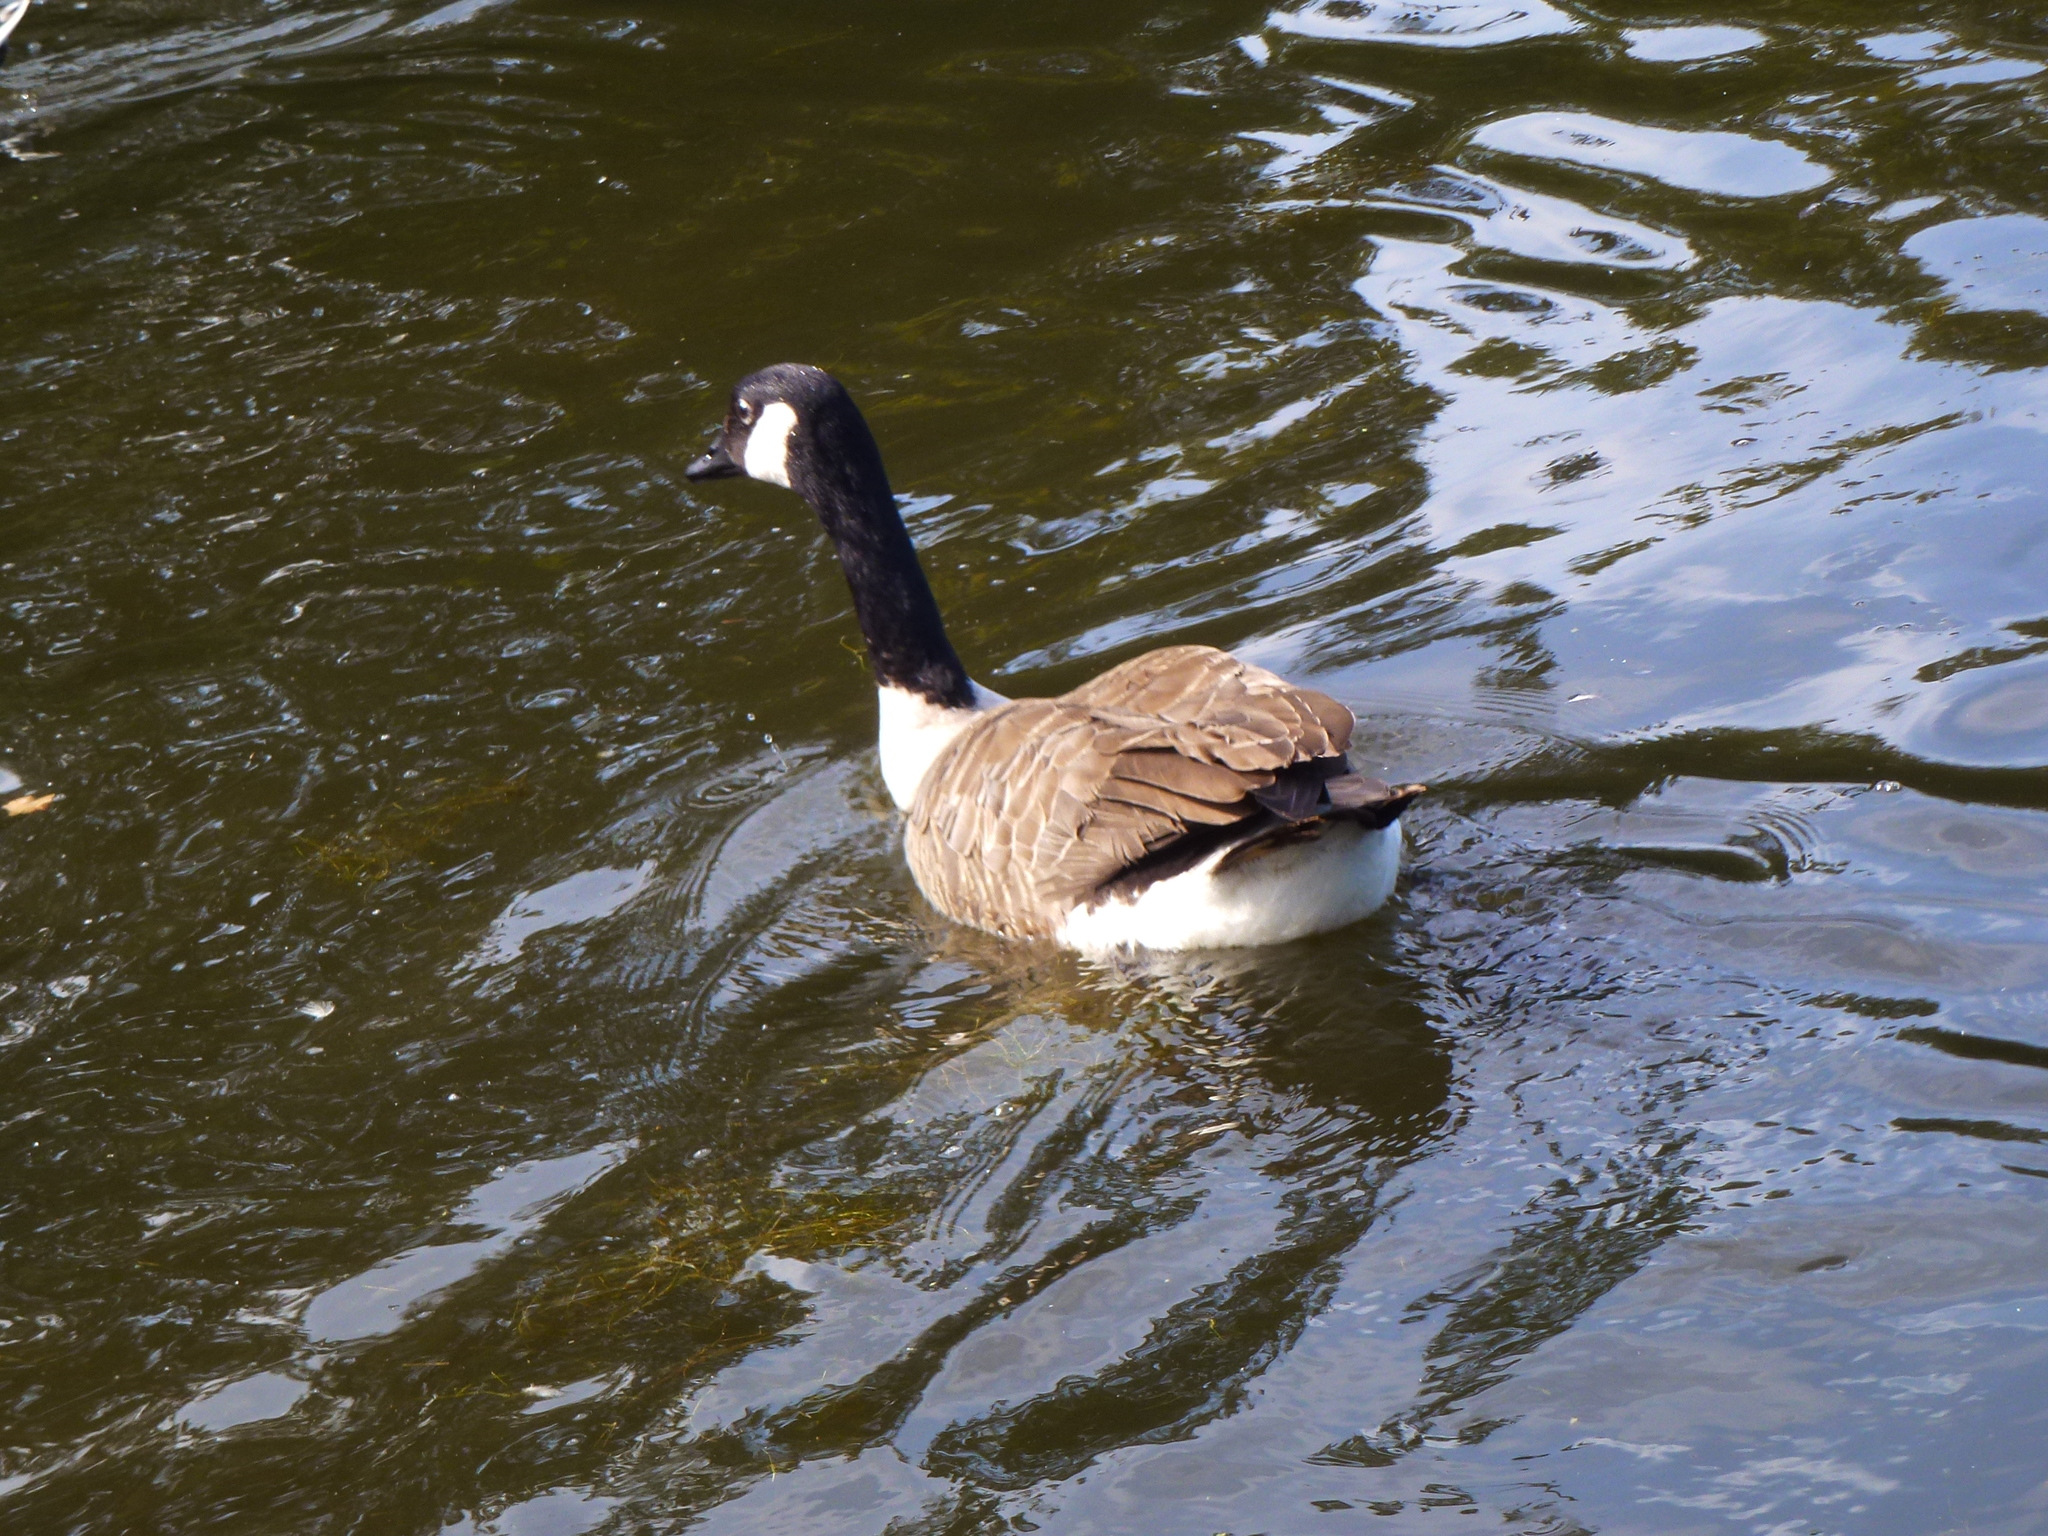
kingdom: Animalia
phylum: Chordata
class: Aves
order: Anseriformes
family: Anatidae
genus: Branta
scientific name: Branta canadensis
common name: Canada goose
